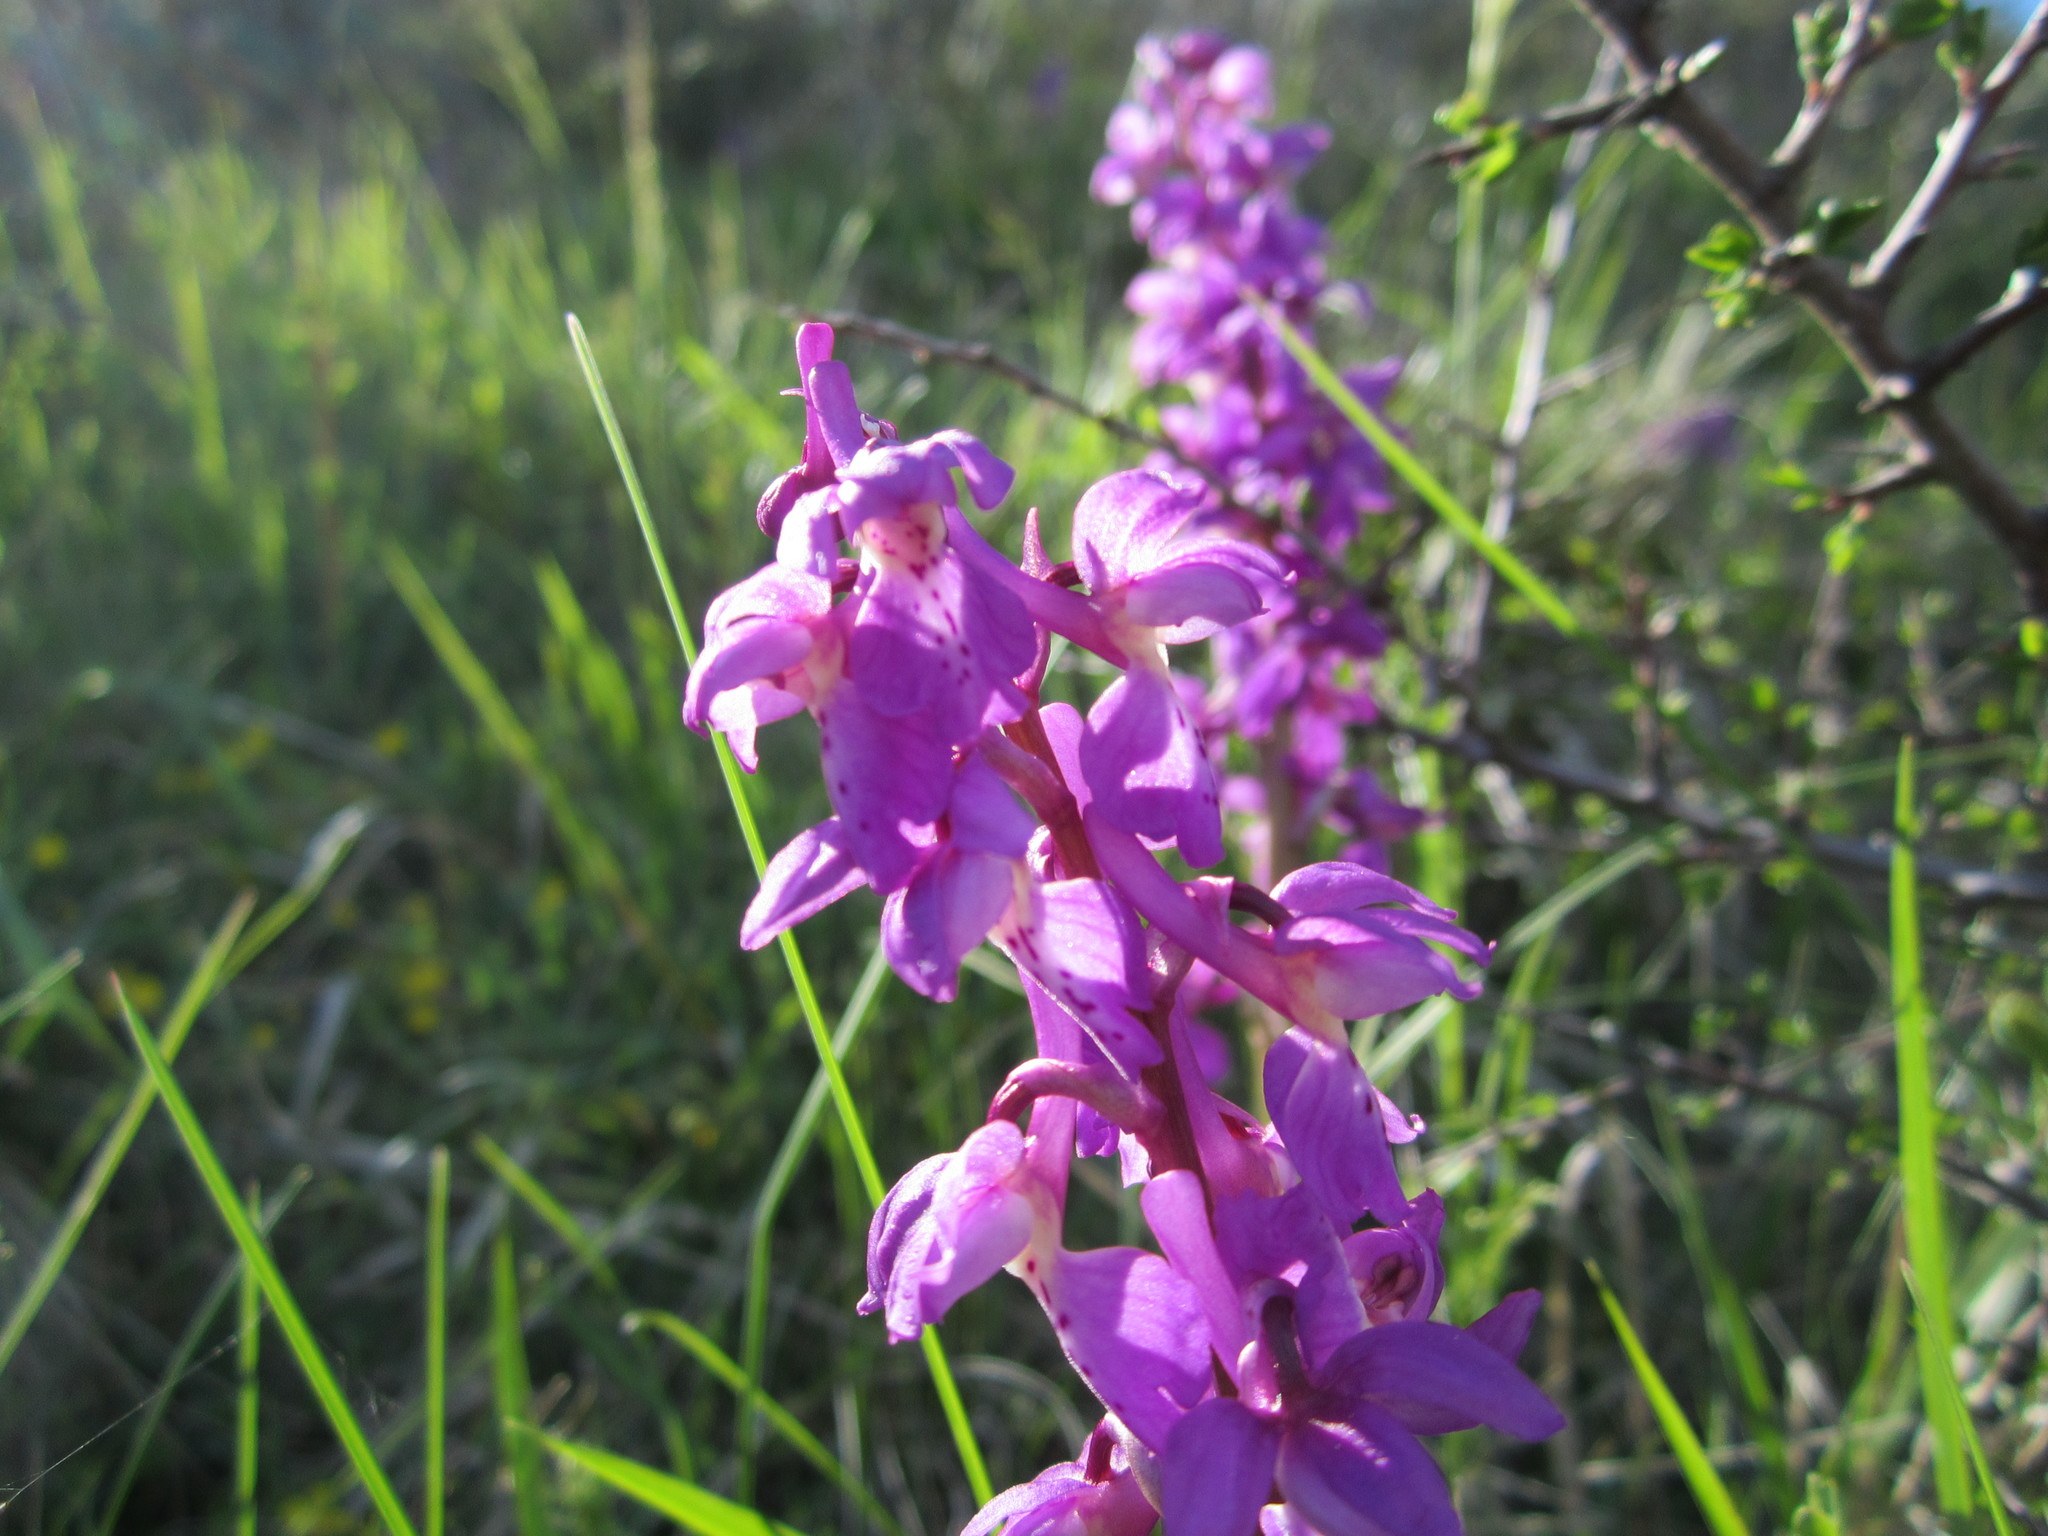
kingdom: Plantae
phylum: Tracheophyta
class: Liliopsida
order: Asparagales
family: Orchidaceae
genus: Orchis
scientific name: Orchis mascula
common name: Early-purple orchid
